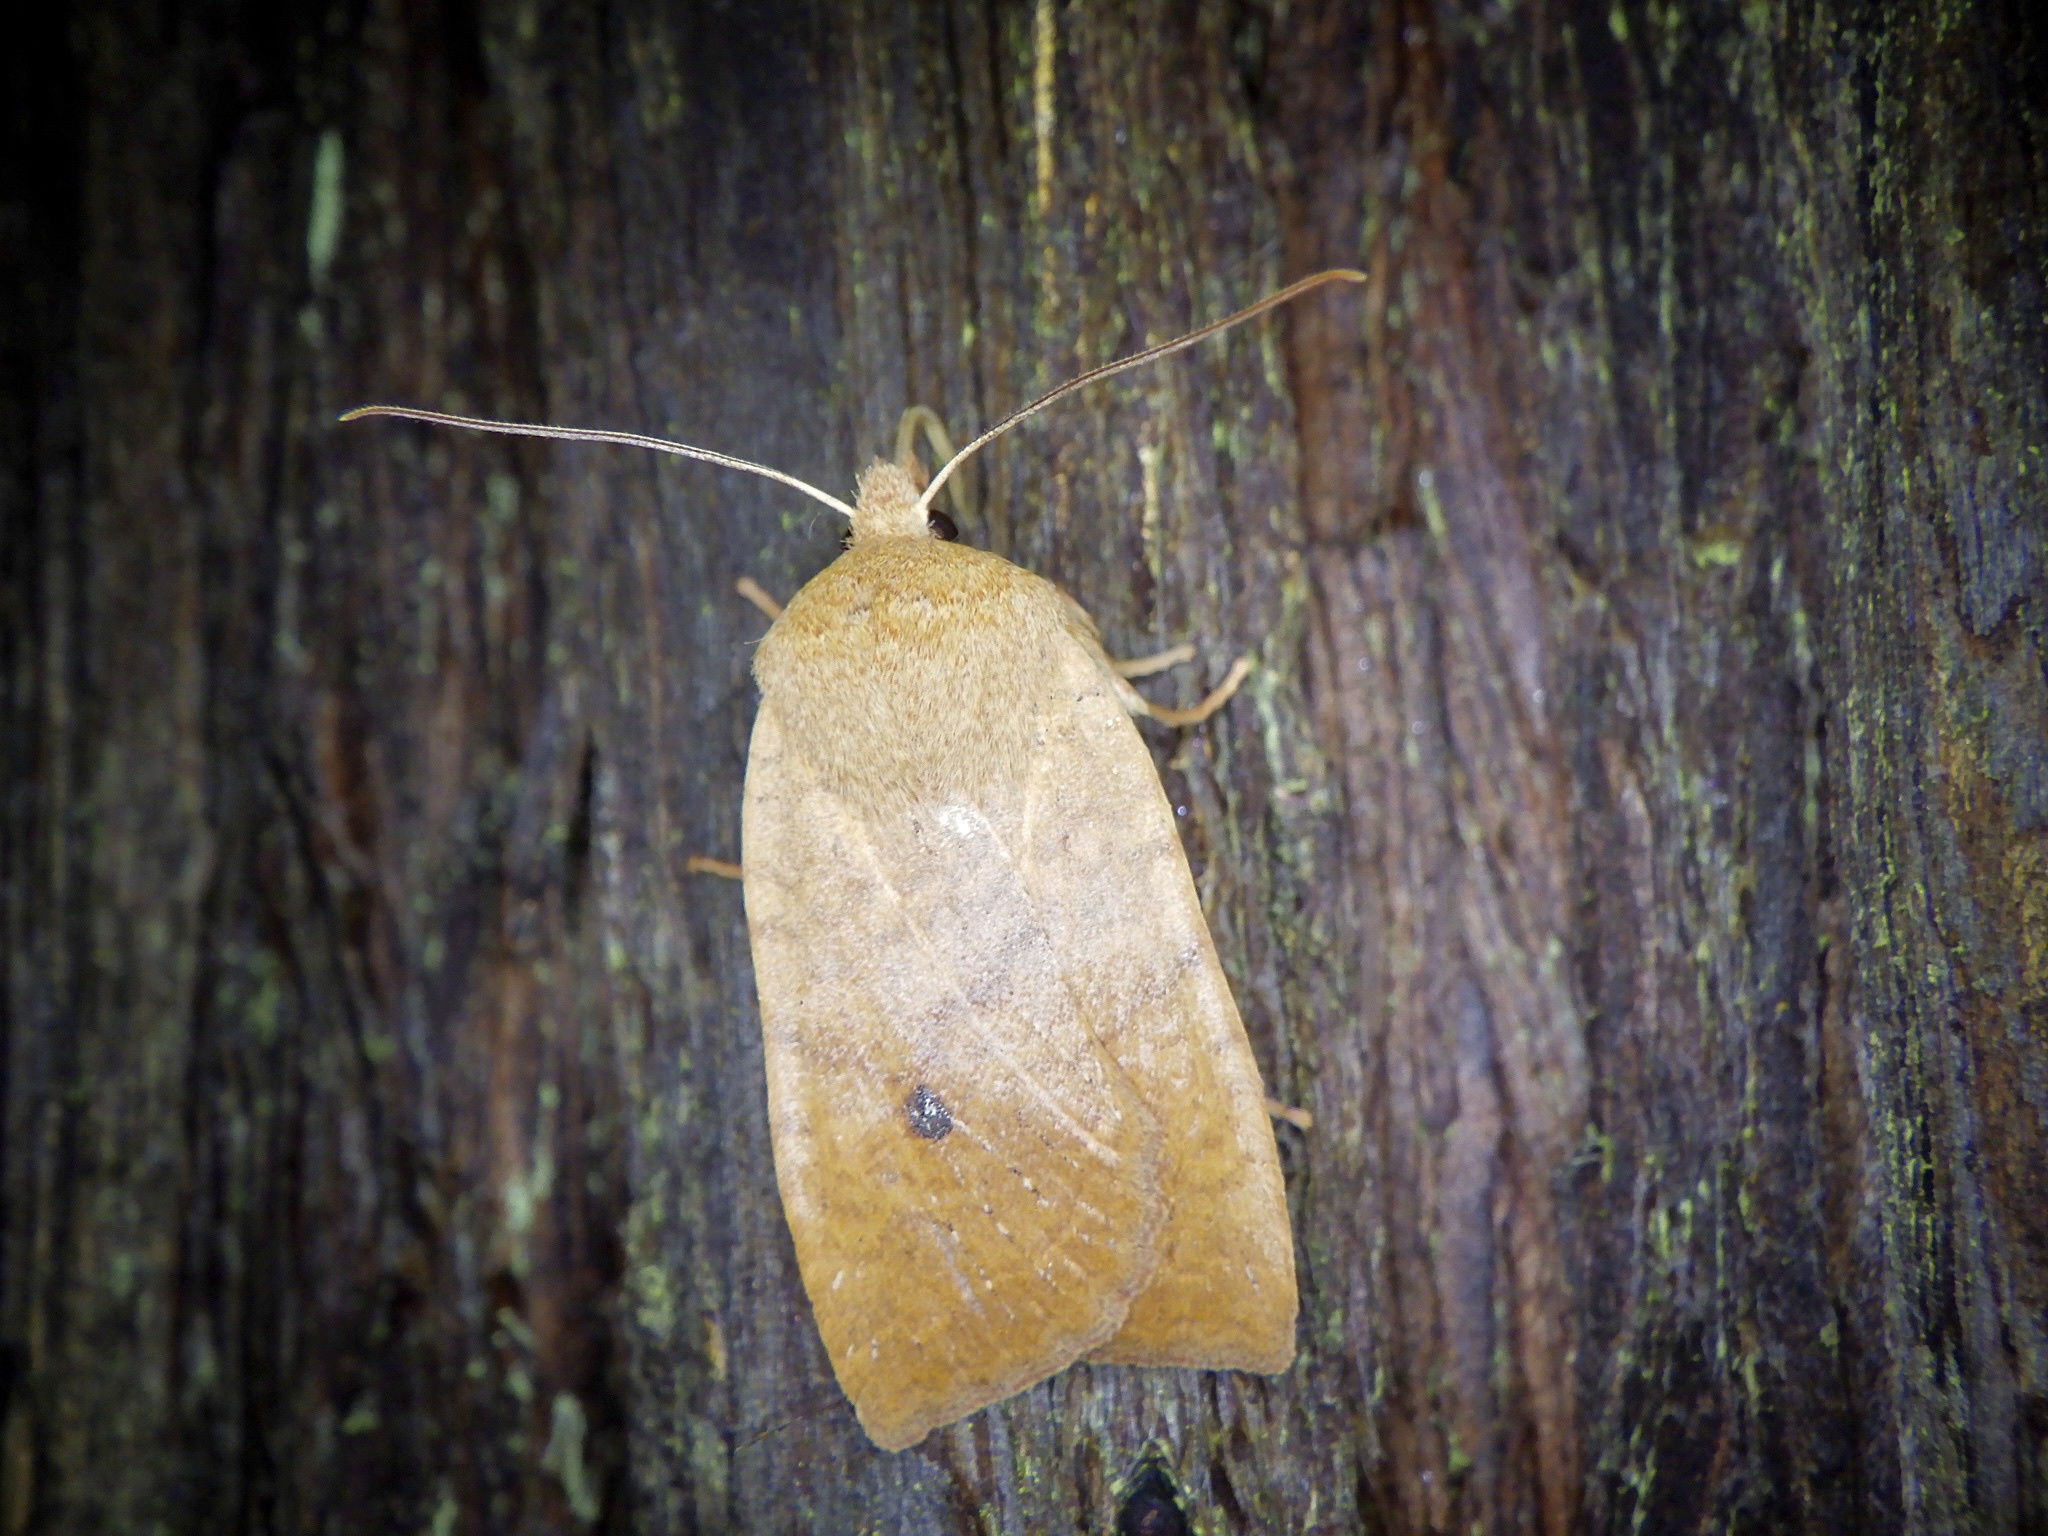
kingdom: Animalia
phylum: Arthropoda
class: Insecta
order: Lepidoptera
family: Noctuidae
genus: Conistra
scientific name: Conistra albipuncta
